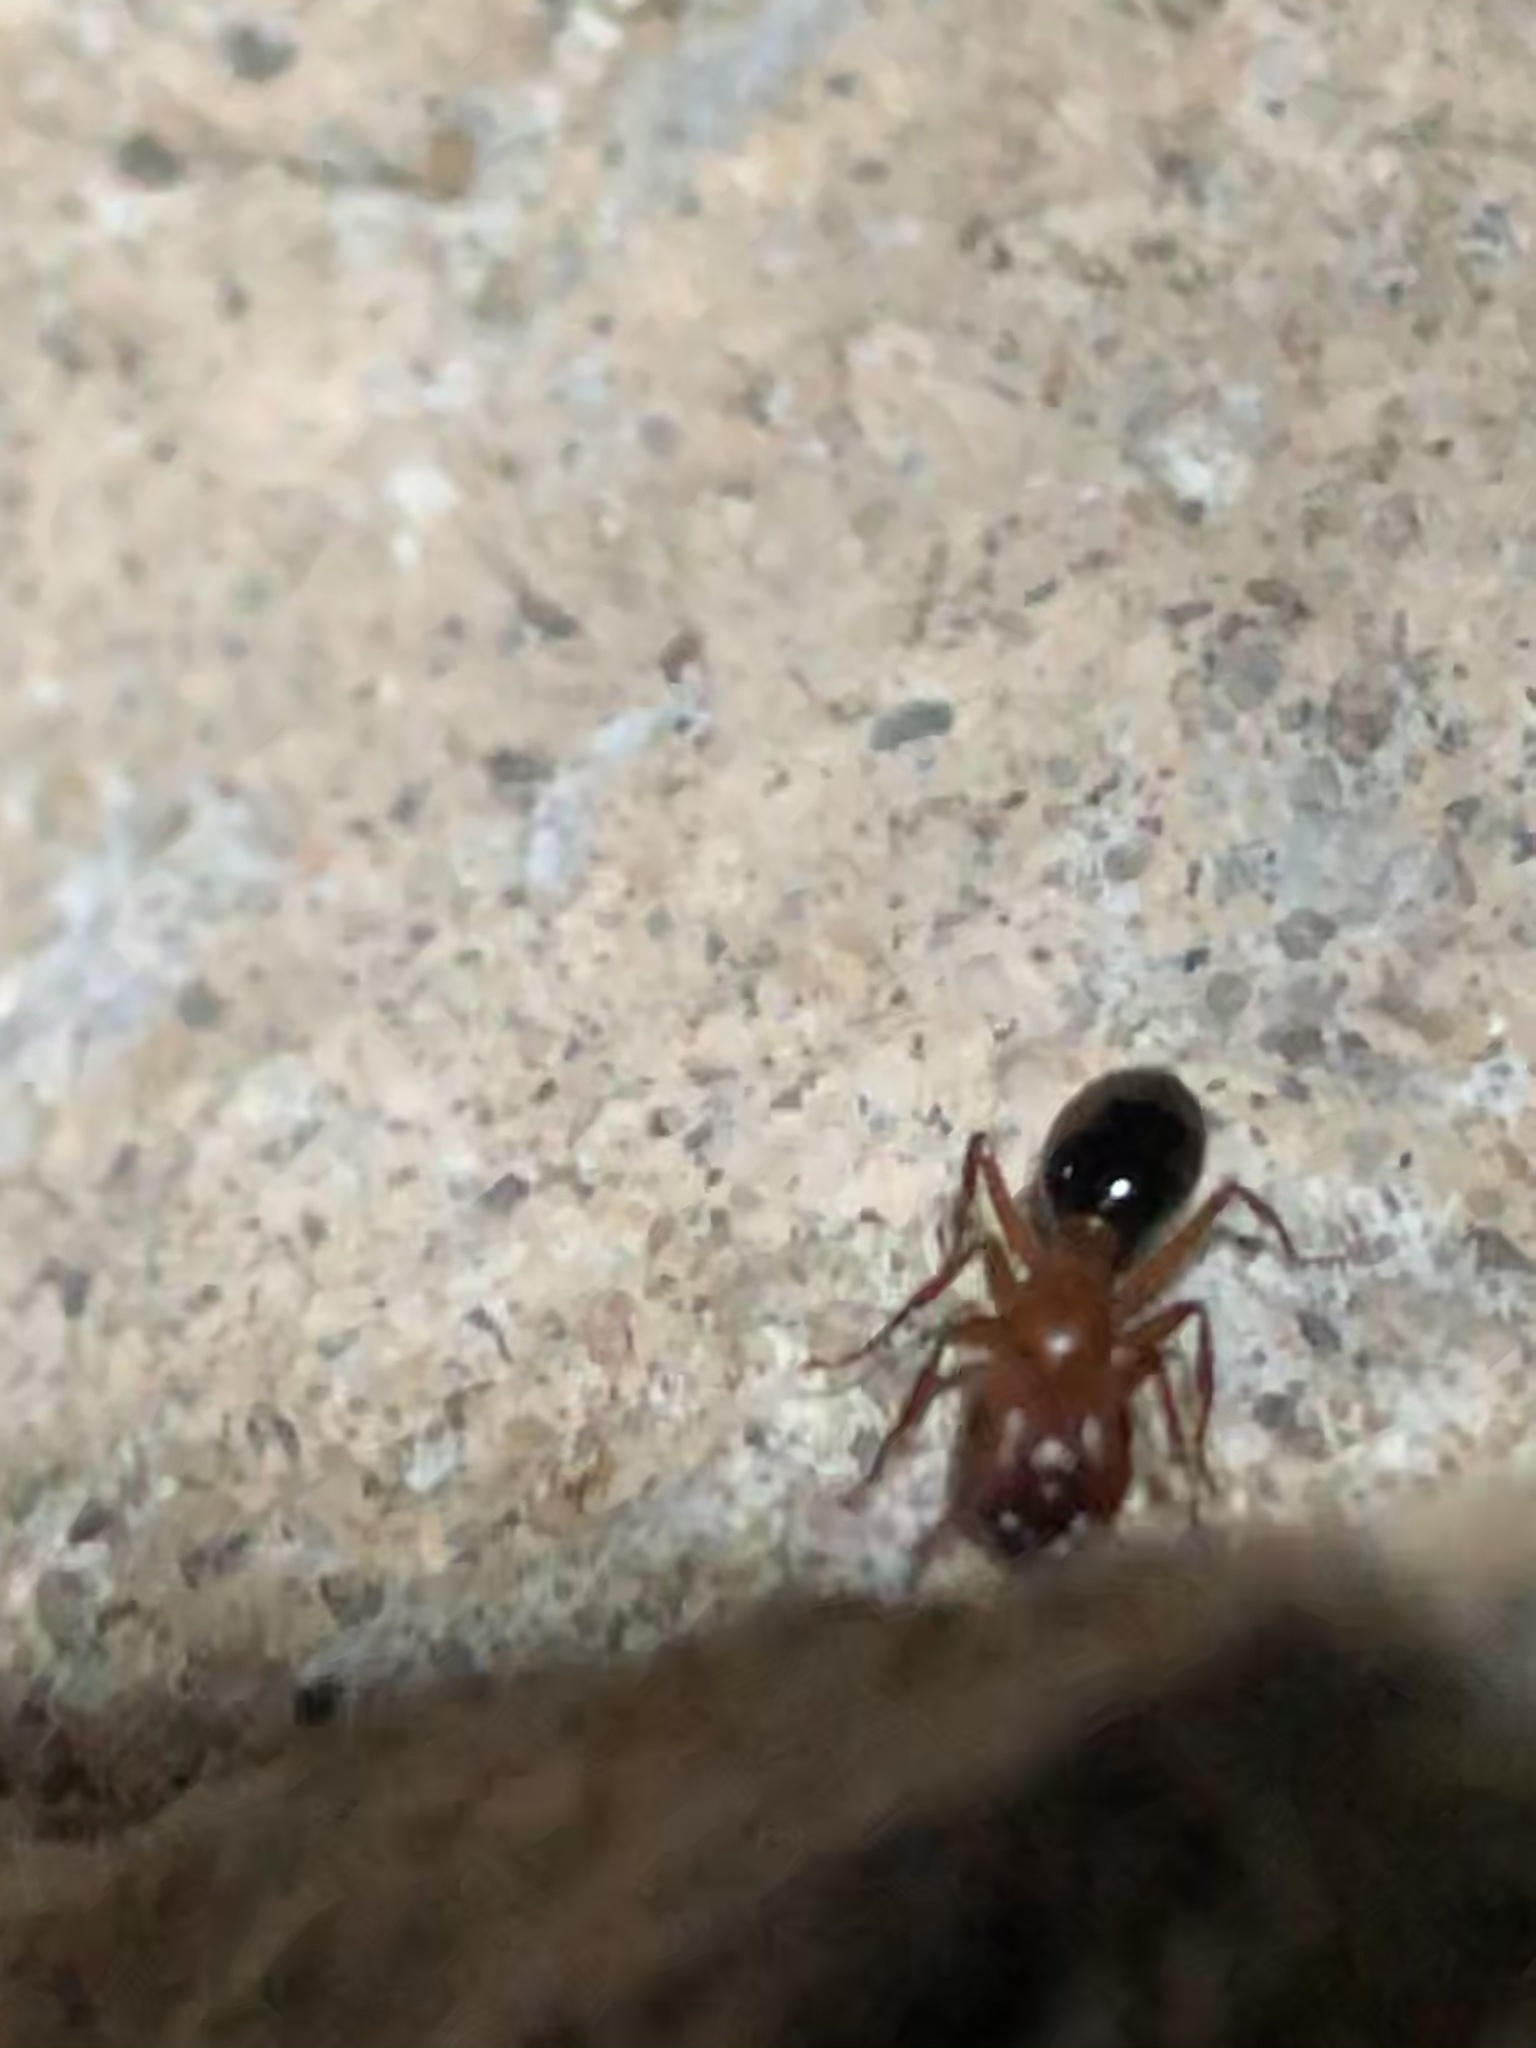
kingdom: Animalia
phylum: Arthropoda
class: Insecta
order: Hymenoptera
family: Formicidae
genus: Camponotus
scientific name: Camponotus sayi
